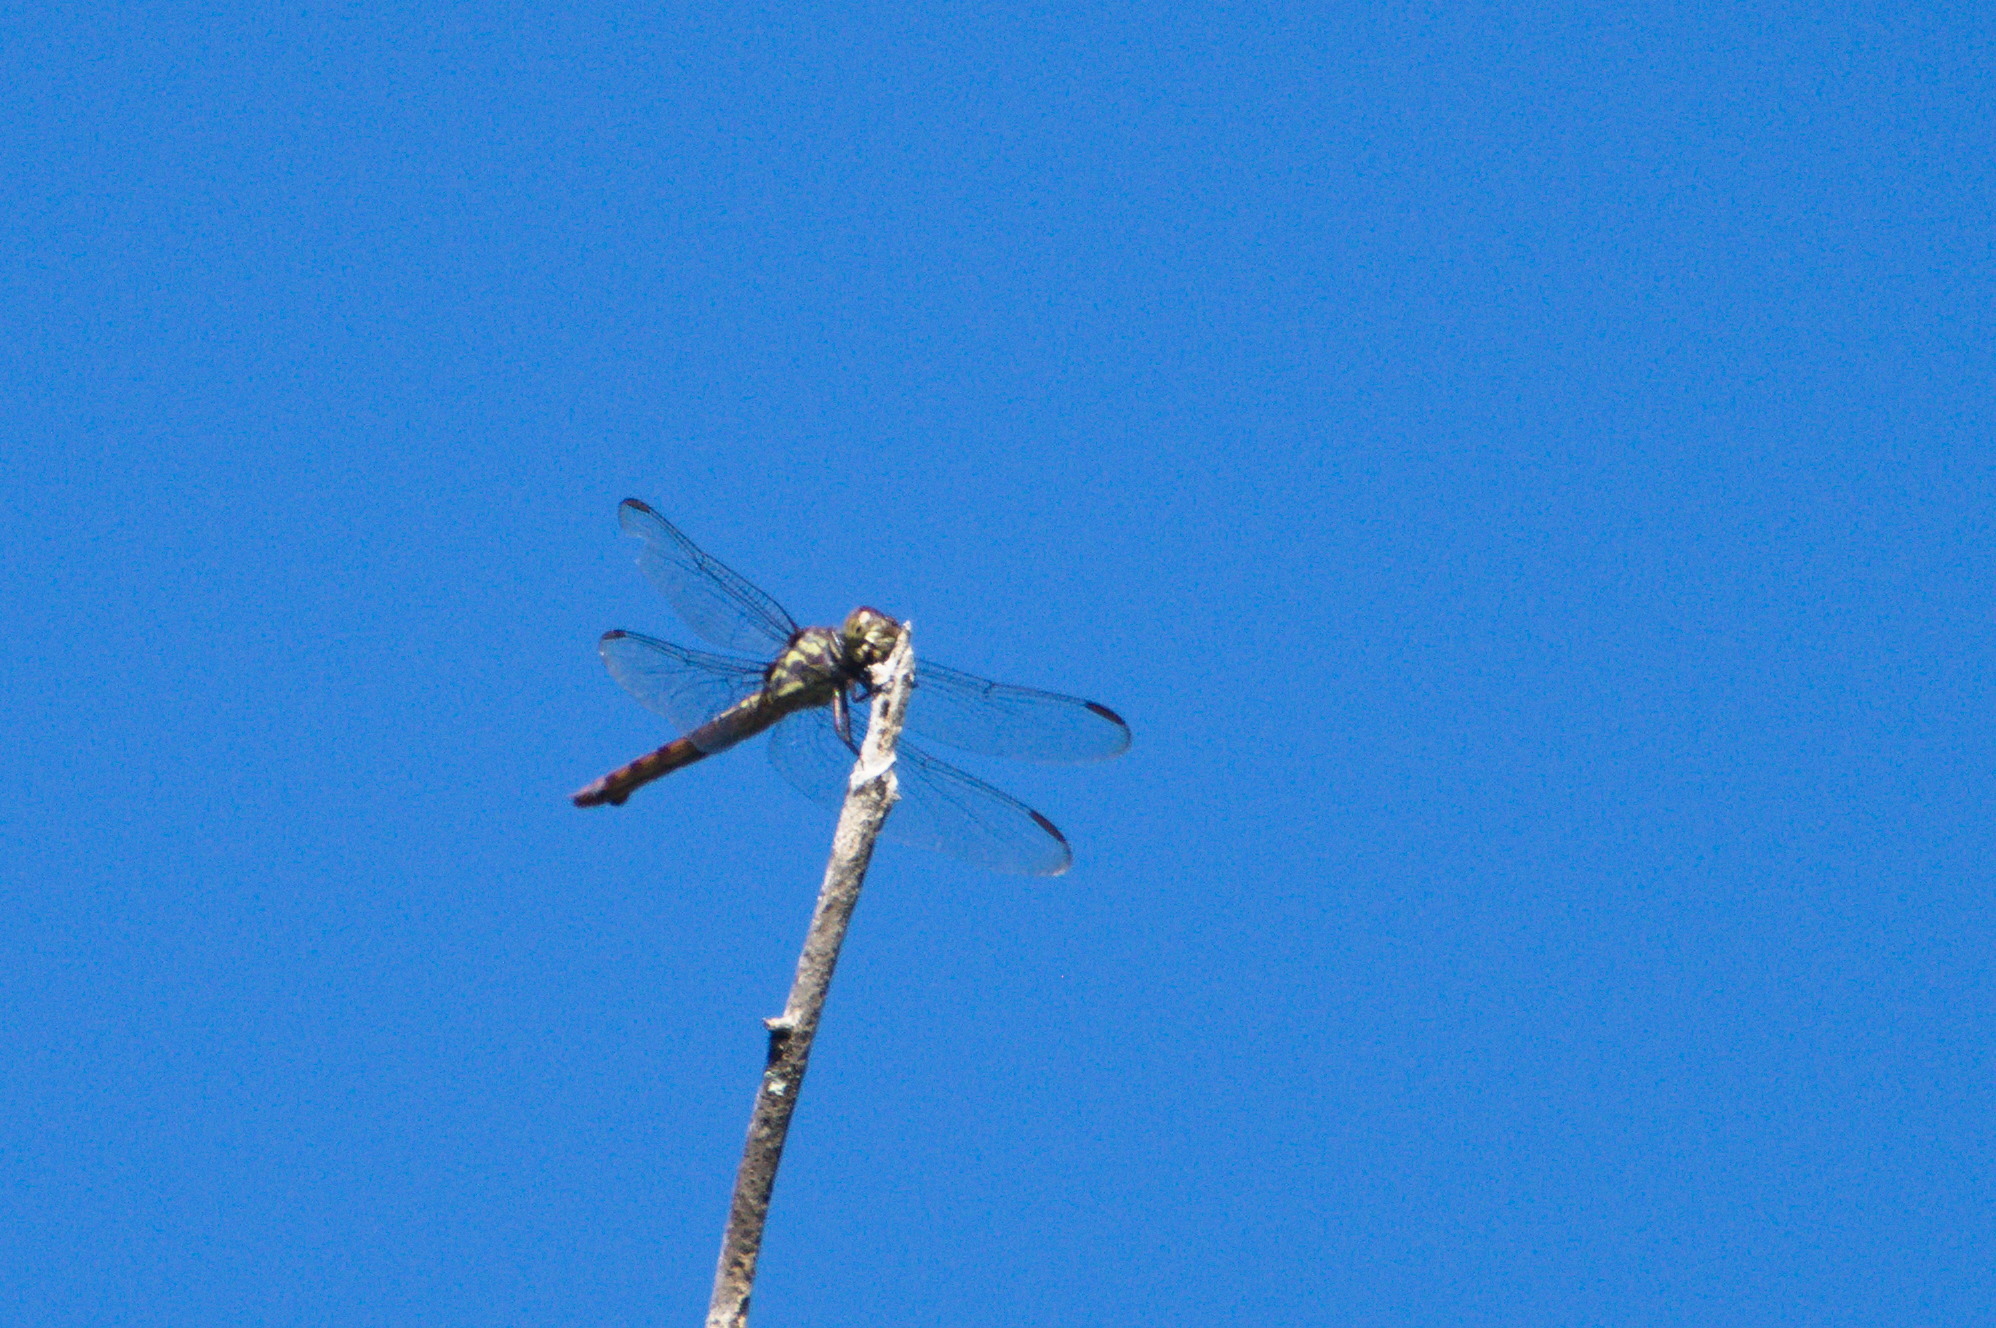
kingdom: Animalia
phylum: Arthropoda
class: Insecta
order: Odonata
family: Libellulidae
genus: Orthemis
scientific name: Orthemis aequilibris
